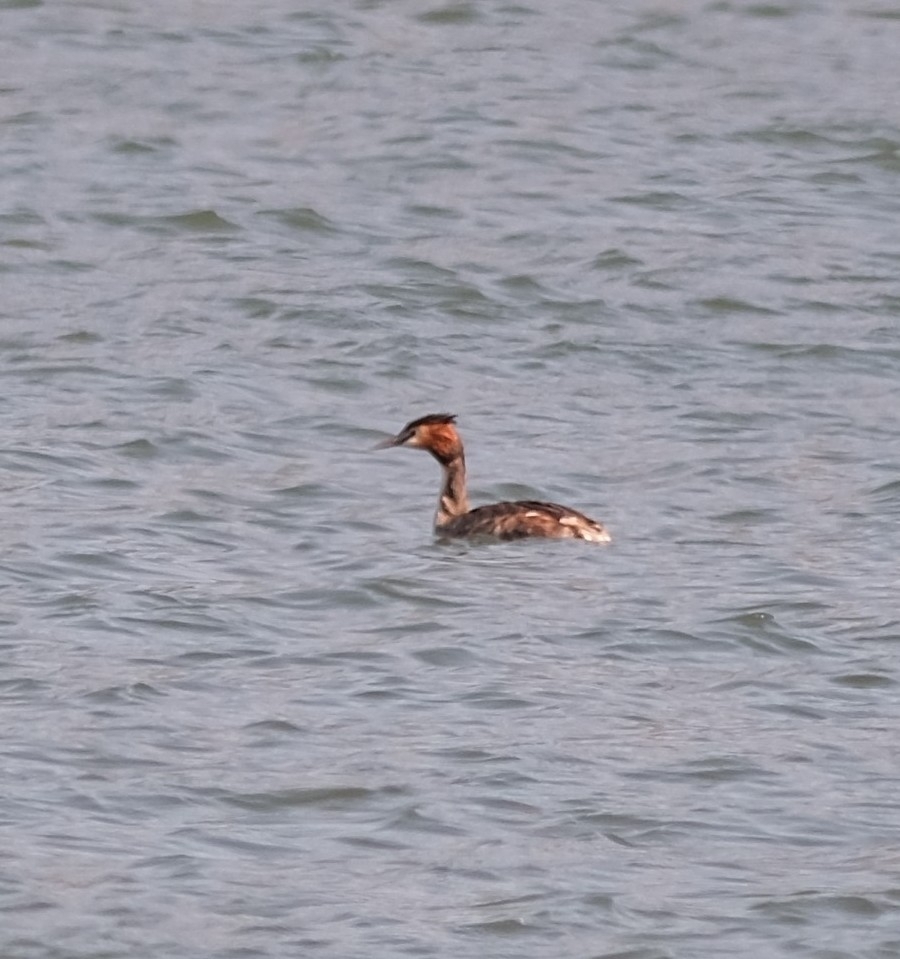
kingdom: Animalia
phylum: Chordata
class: Aves
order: Podicipediformes
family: Podicipedidae
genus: Podiceps
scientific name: Podiceps cristatus
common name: Great crested grebe
